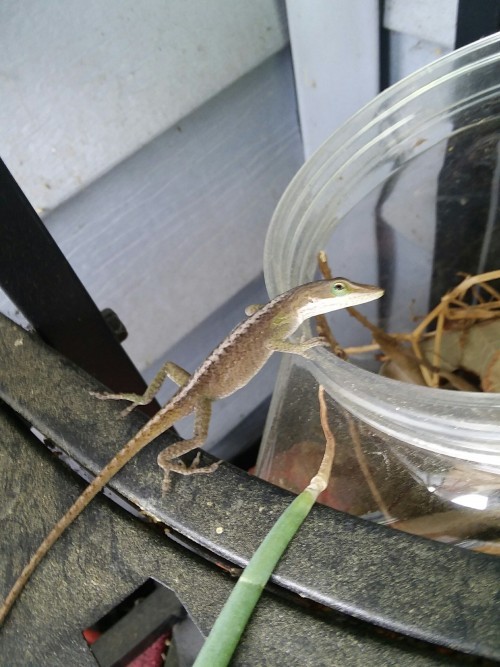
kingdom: Animalia
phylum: Chordata
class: Squamata
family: Dactyloidae
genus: Anolis
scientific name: Anolis carolinensis
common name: Green anole
